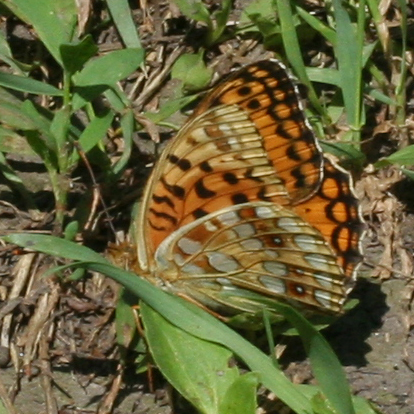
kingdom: Animalia
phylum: Arthropoda
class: Insecta
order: Lepidoptera
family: Nymphalidae
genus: Fabriciana
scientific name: Fabriciana adippe
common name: High brown fritillary
